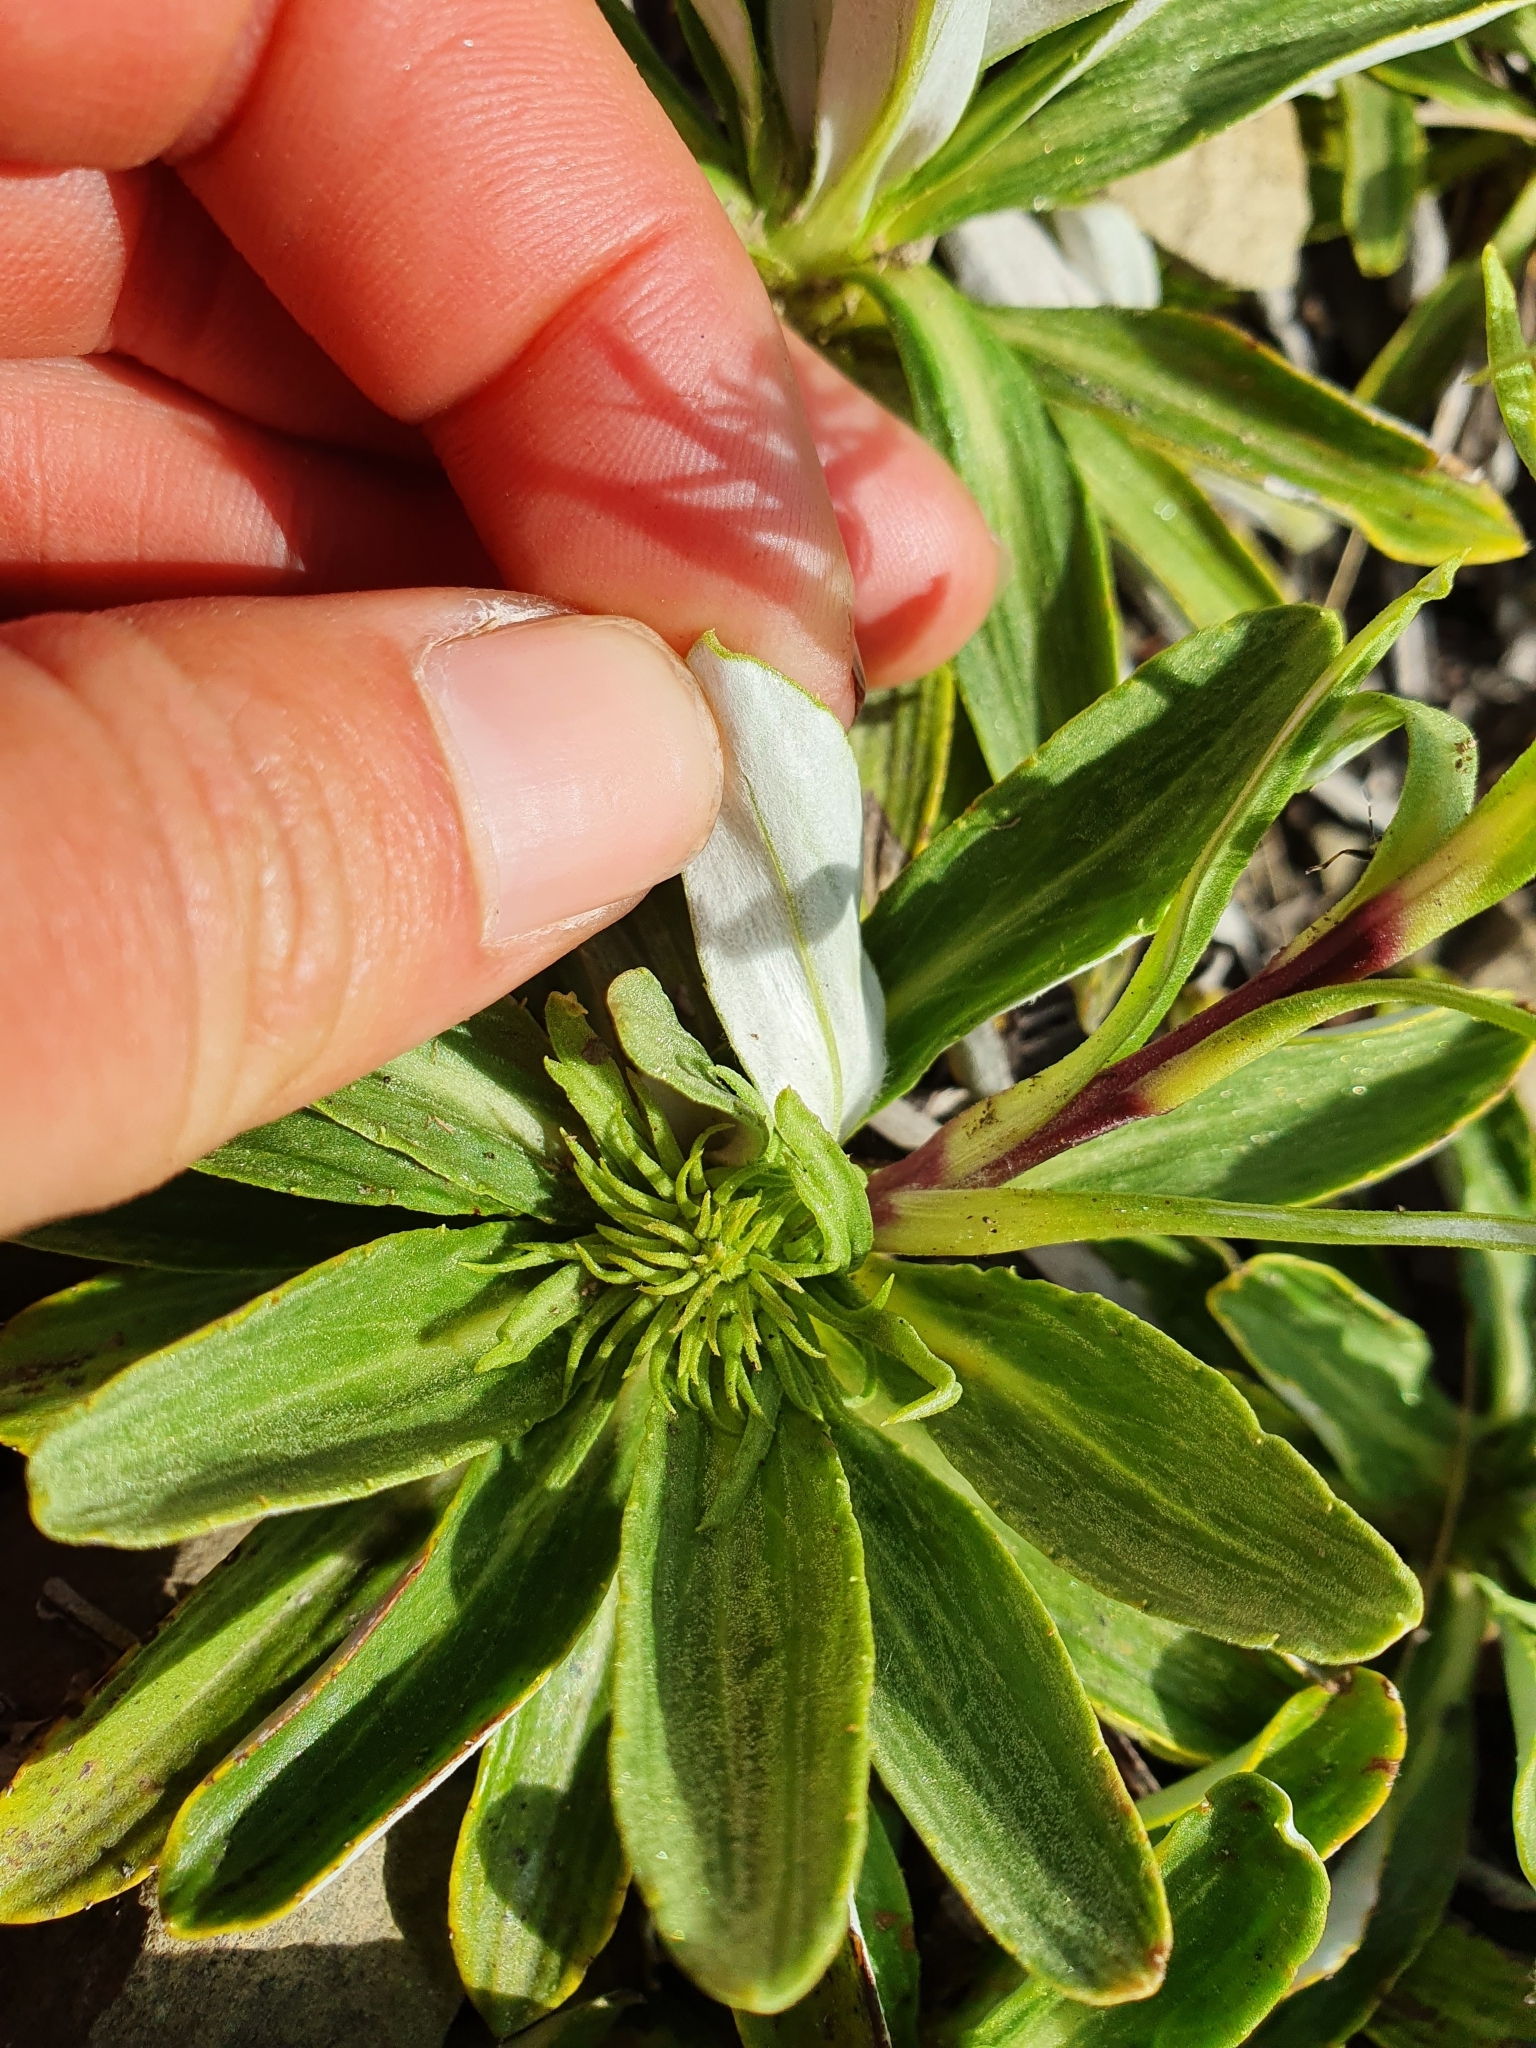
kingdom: Plantae
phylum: Tracheophyta
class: Magnoliopsida
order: Asterales
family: Asteraceae
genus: Celmisia
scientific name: Celmisia durietzii
